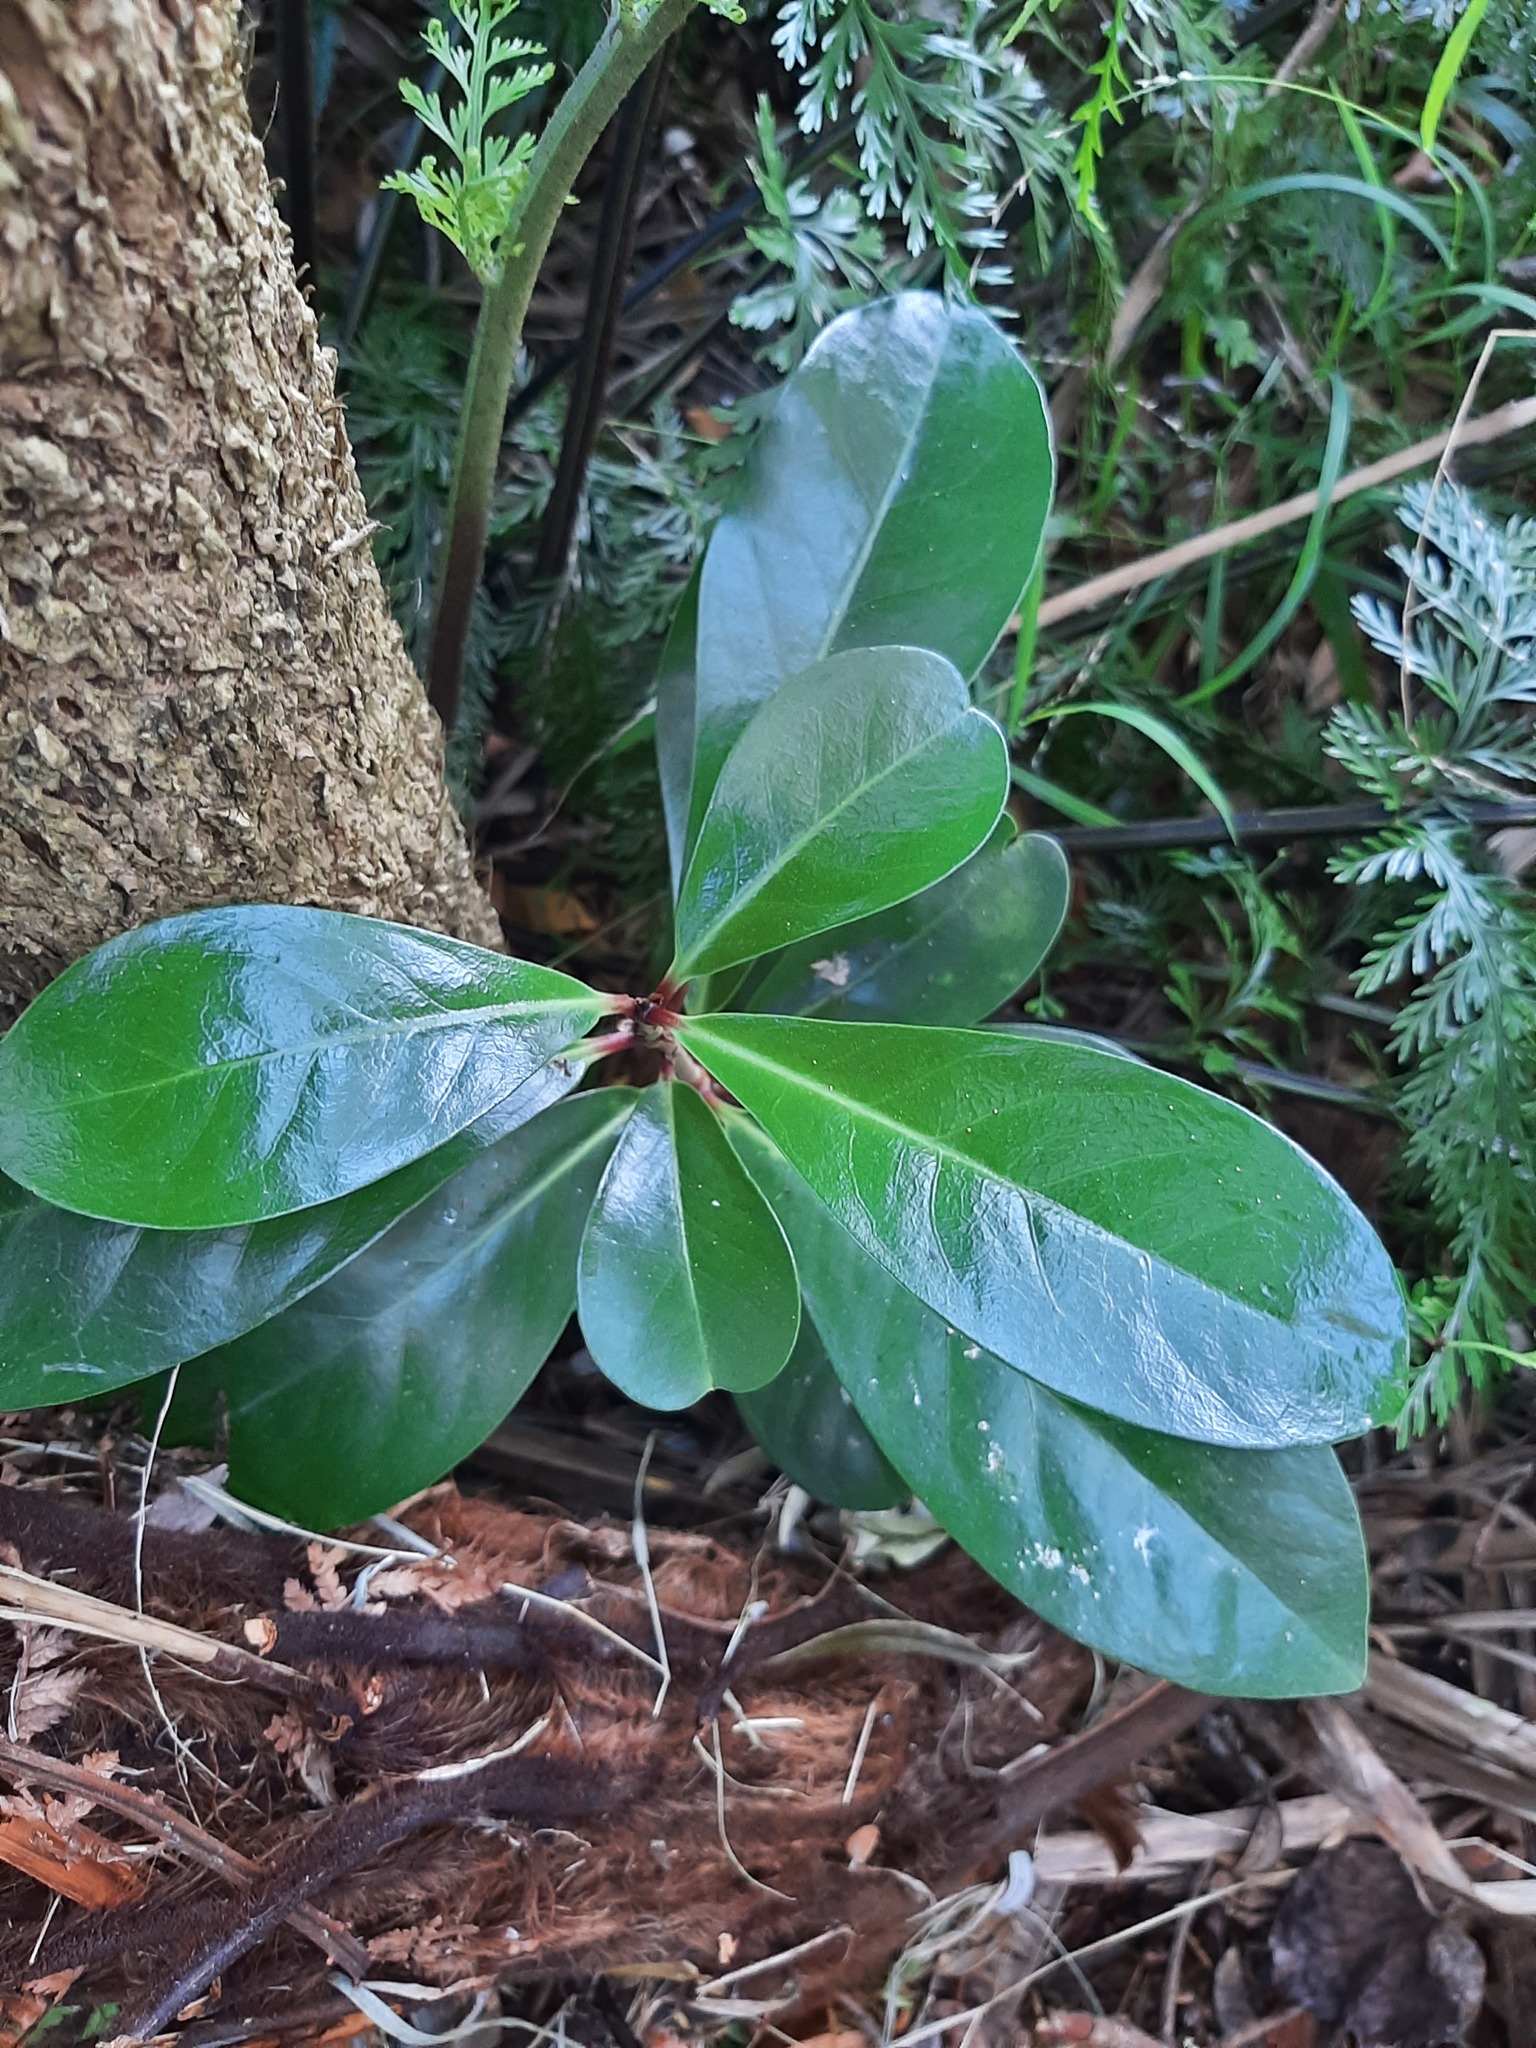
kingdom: Plantae
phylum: Tracheophyta
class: Magnoliopsida
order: Cucurbitales
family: Corynocarpaceae
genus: Corynocarpus
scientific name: Corynocarpus laevigatus
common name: New zealand laurel
